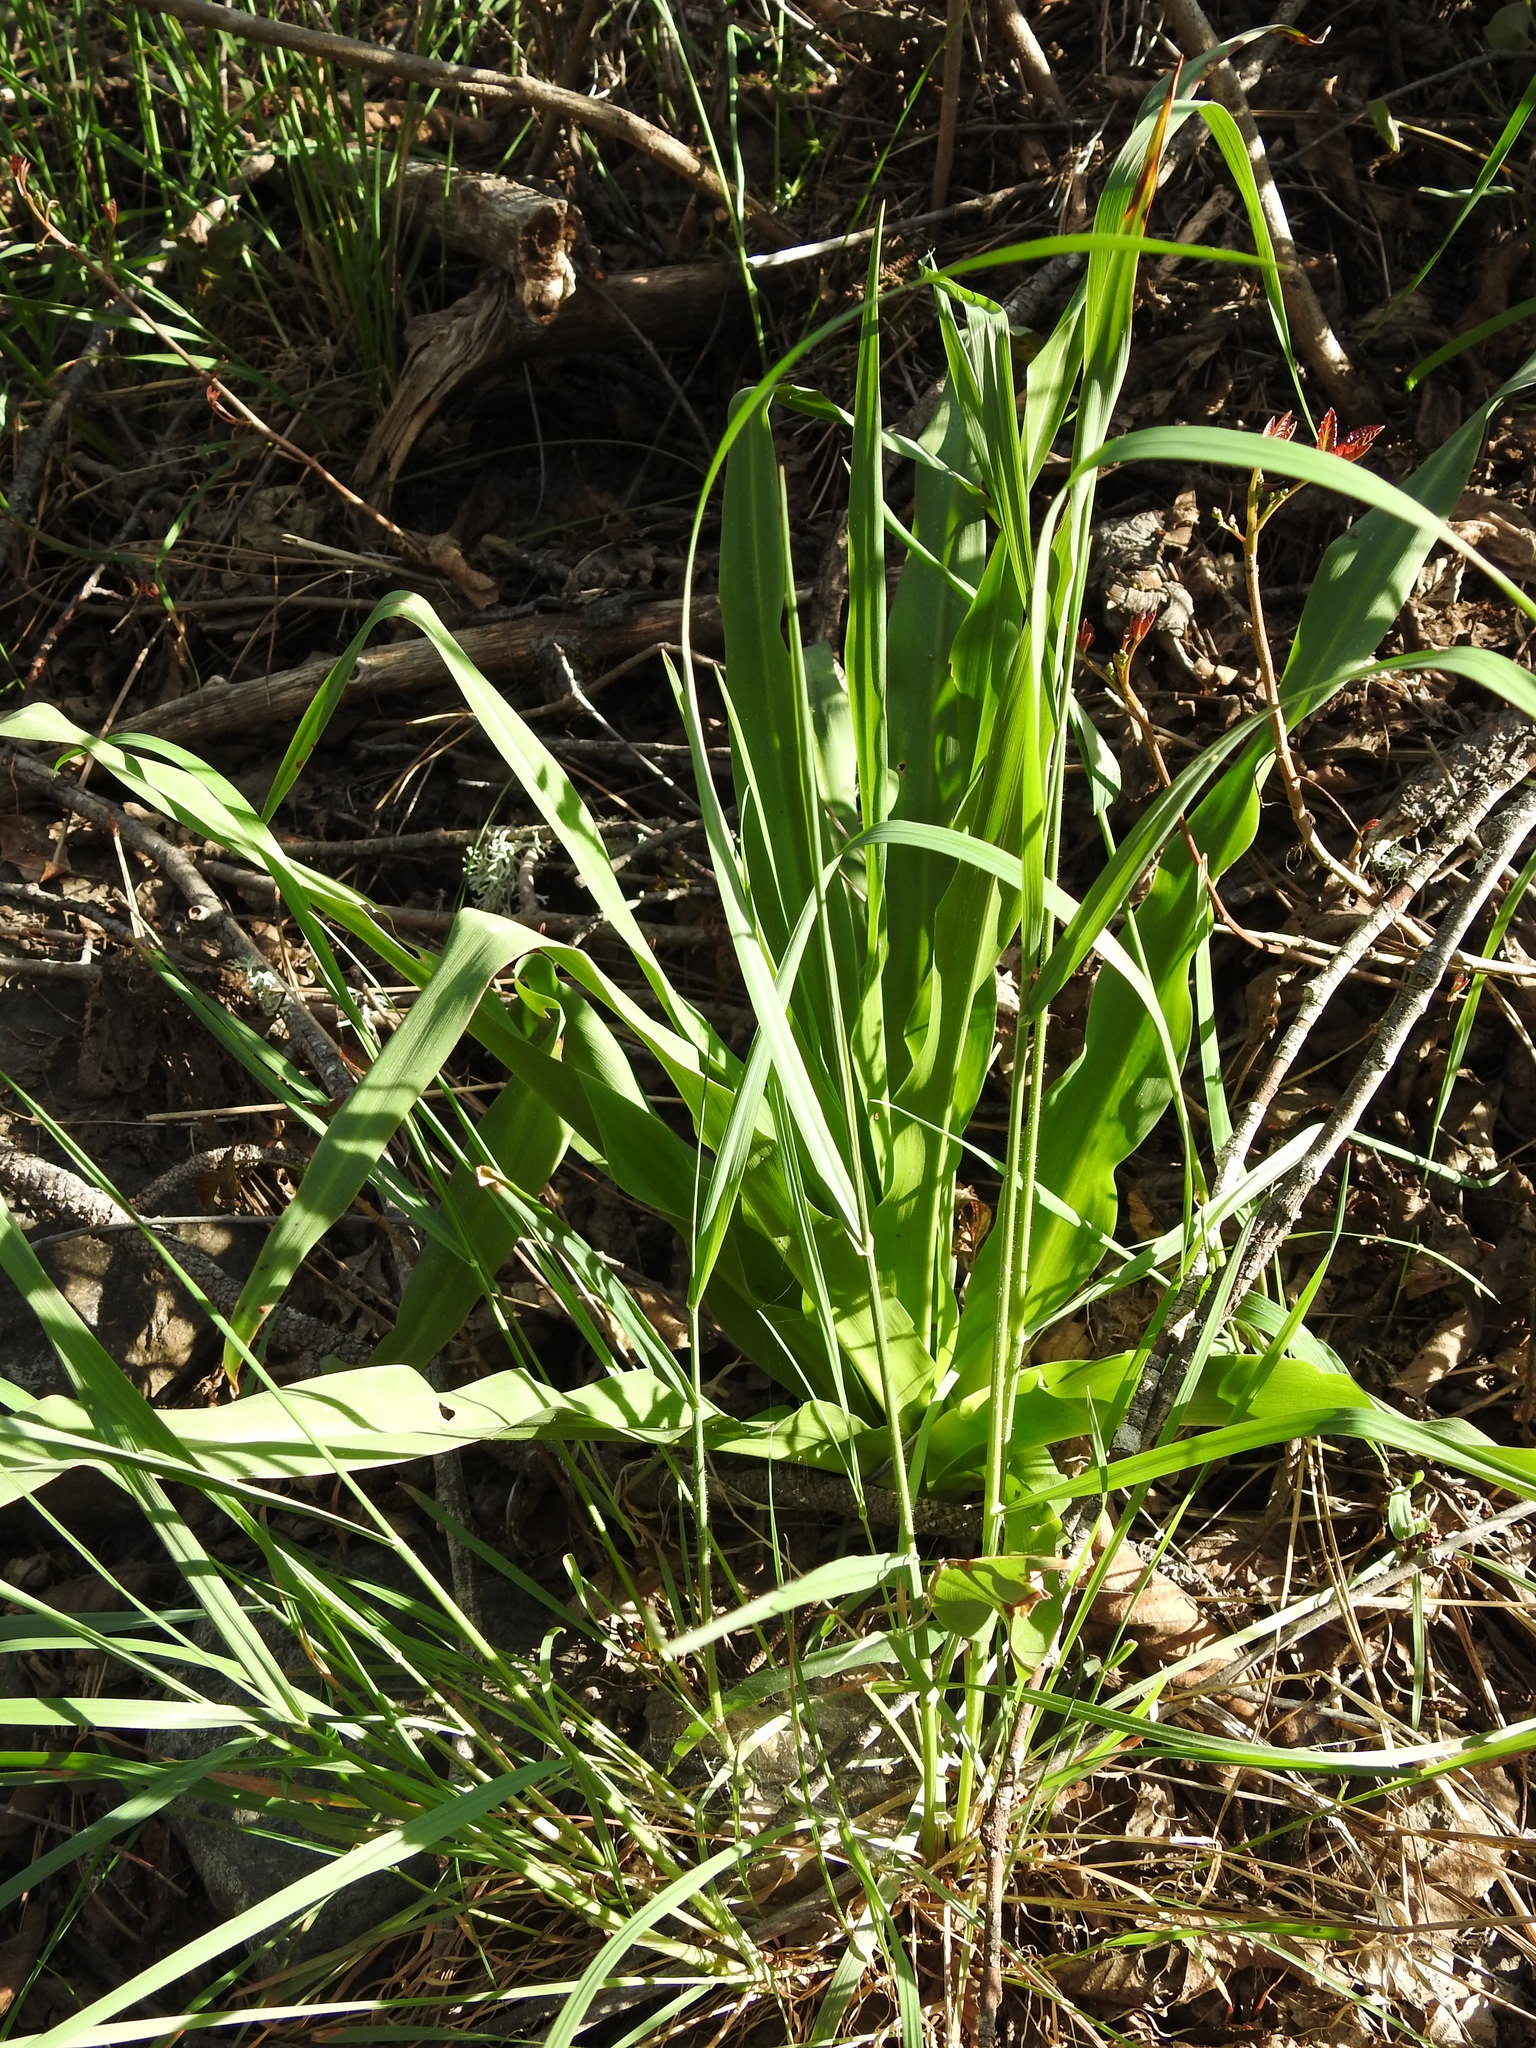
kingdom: Plantae
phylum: Tracheophyta
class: Liliopsida
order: Asparagales
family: Asparagaceae
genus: Chlorogalum
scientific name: Chlorogalum pomeridianum
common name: Amole
